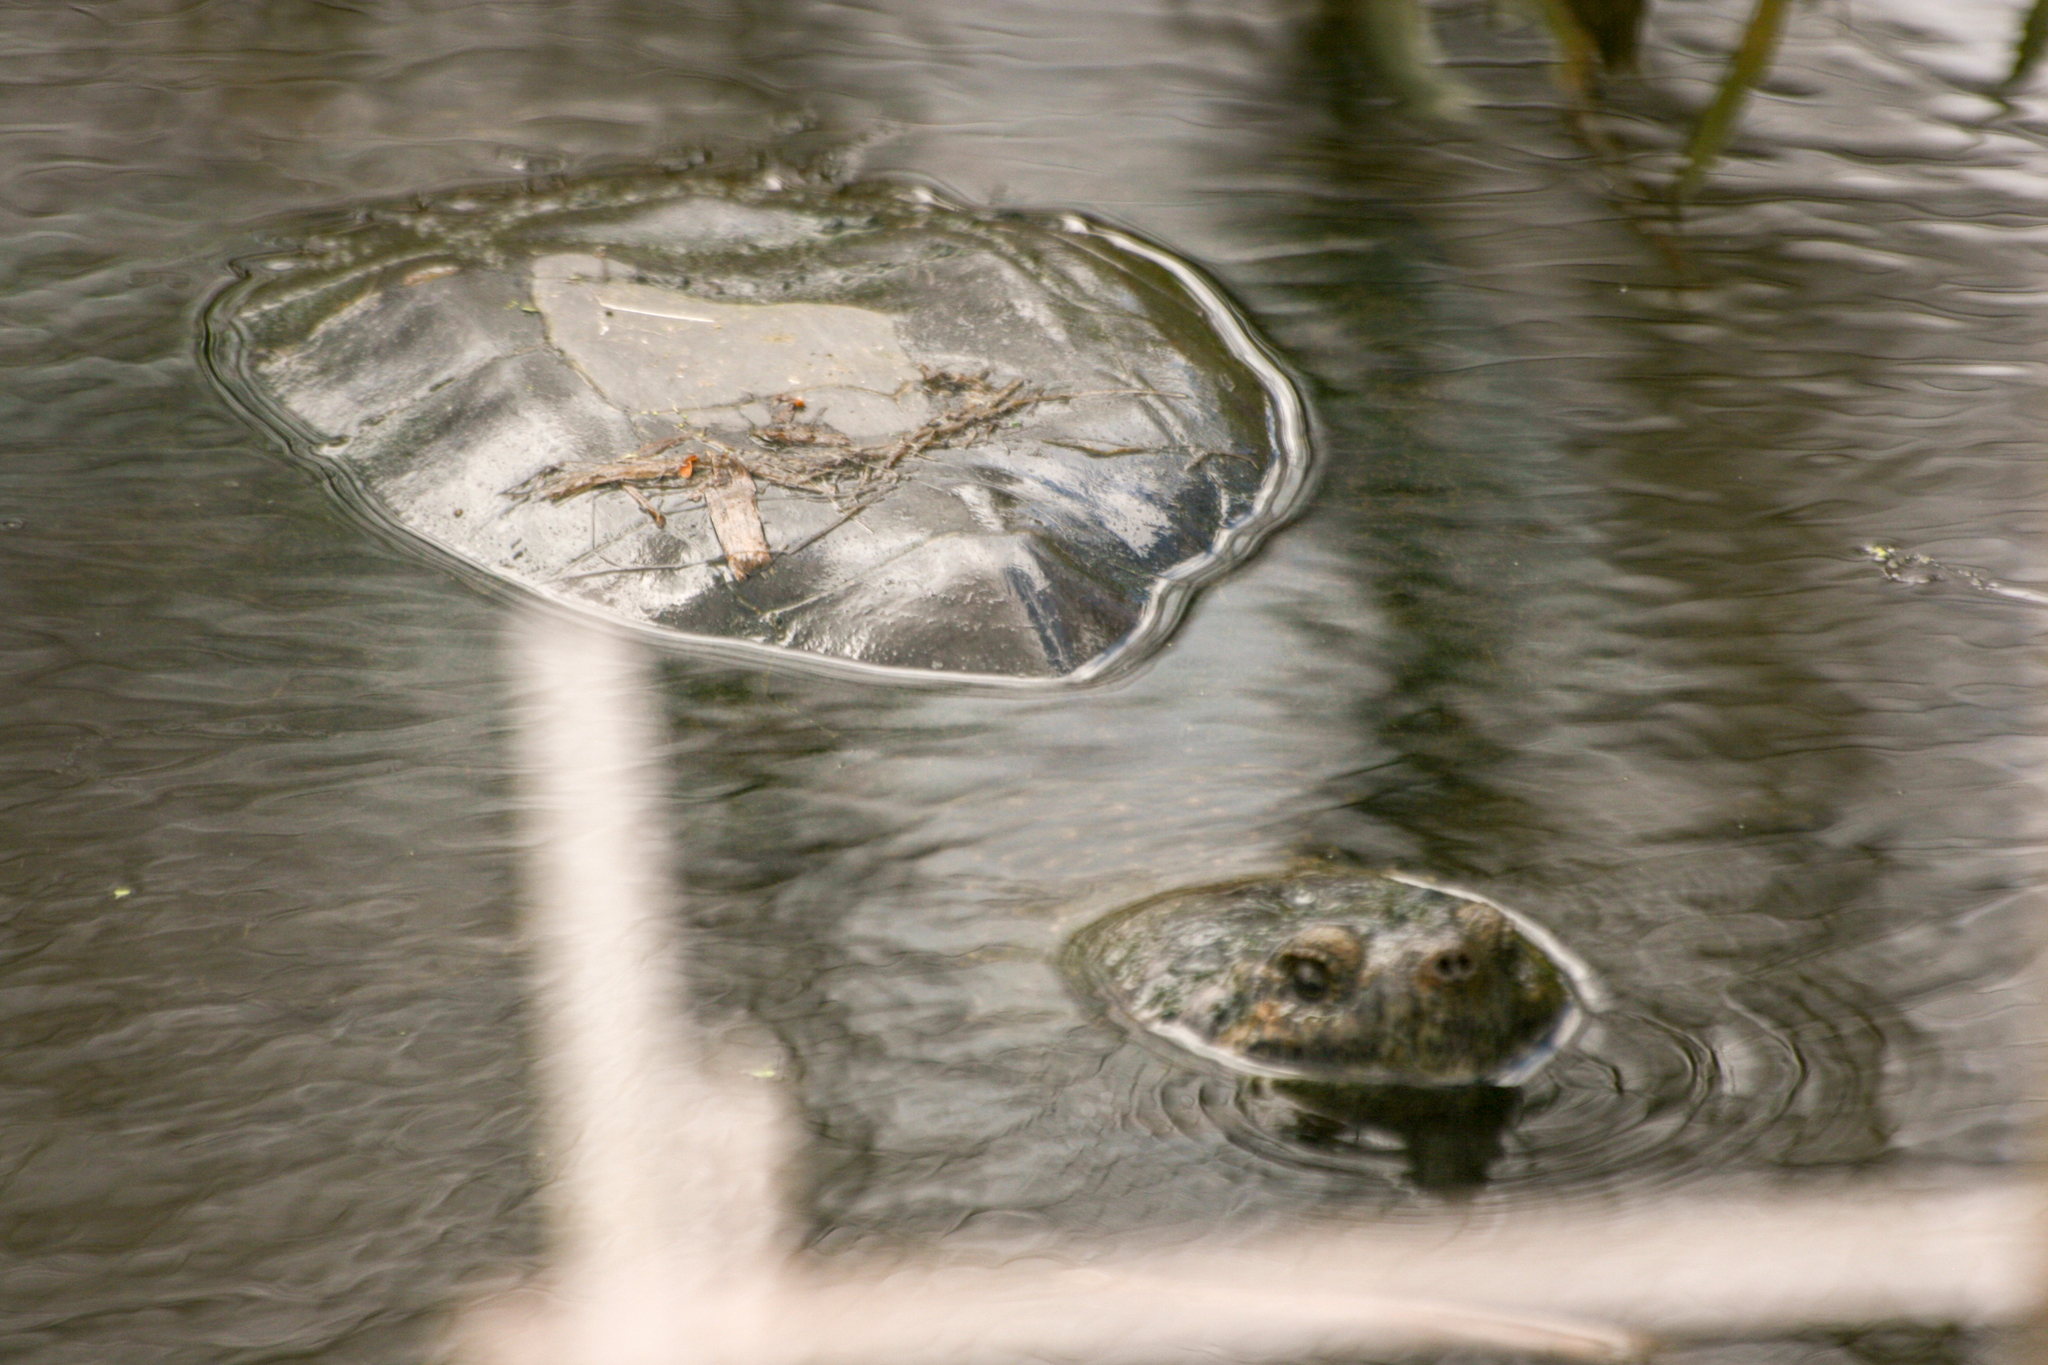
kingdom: Animalia
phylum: Chordata
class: Testudines
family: Chelydridae
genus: Chelydra
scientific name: Chelydra serpentina
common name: Common snapping turtle
